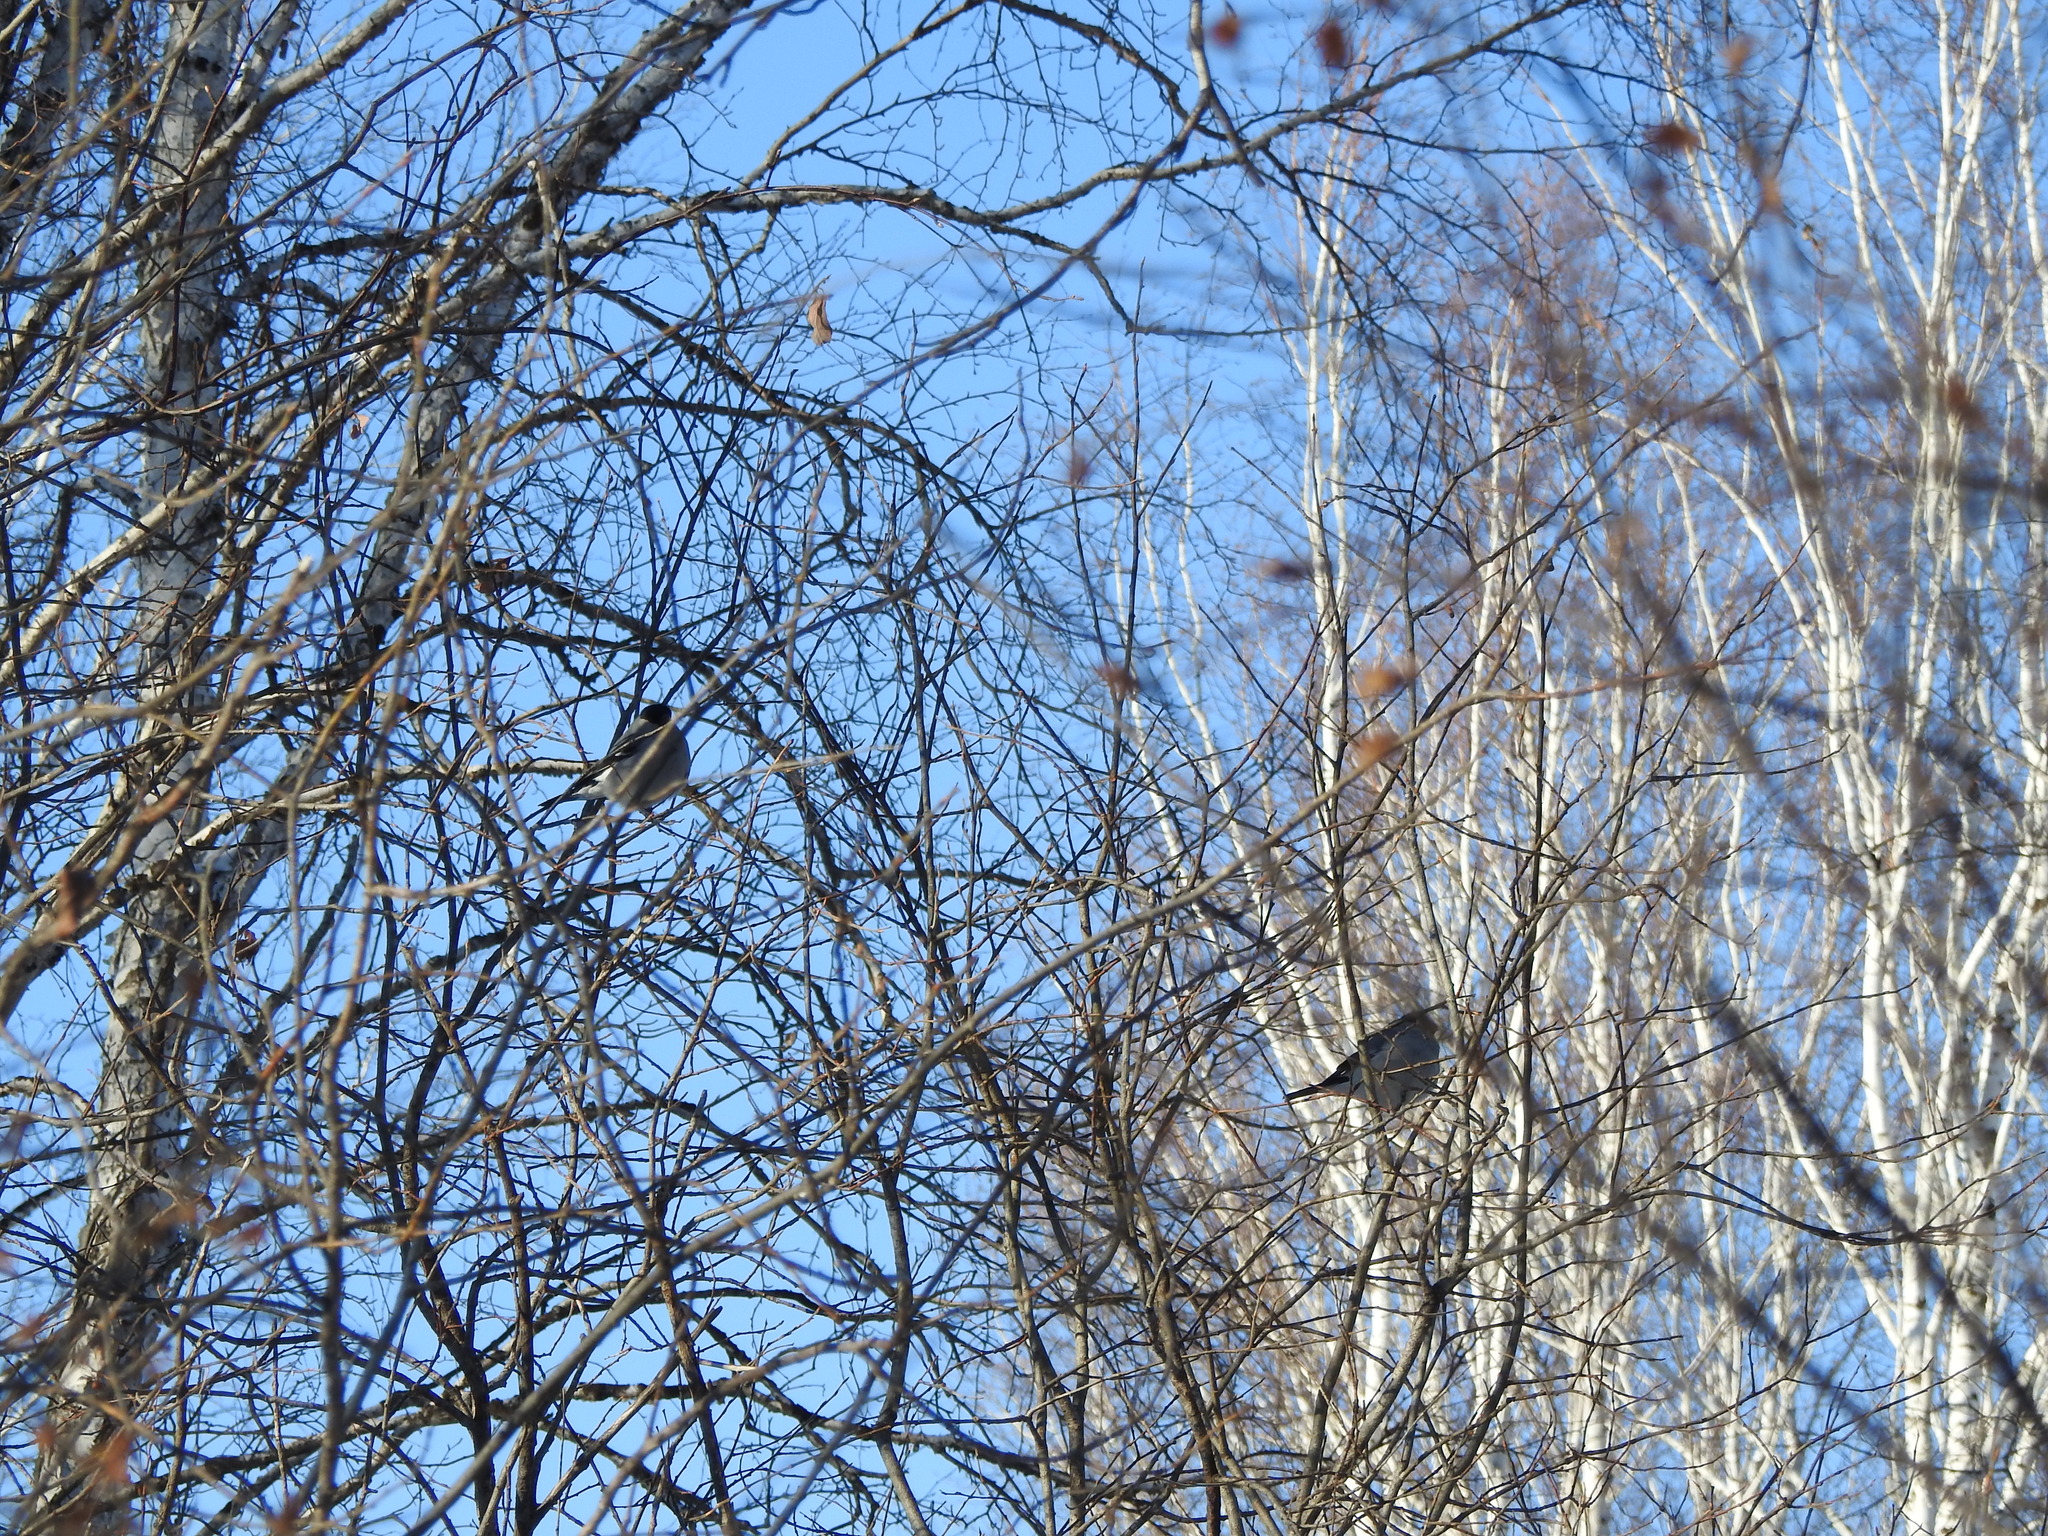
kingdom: Animalia
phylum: Chordata
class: Aves
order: Passeriformes
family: Fringillidae
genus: Pyrrhula
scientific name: Pyrrhula pyrrhula
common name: Eurasian bullfinch
